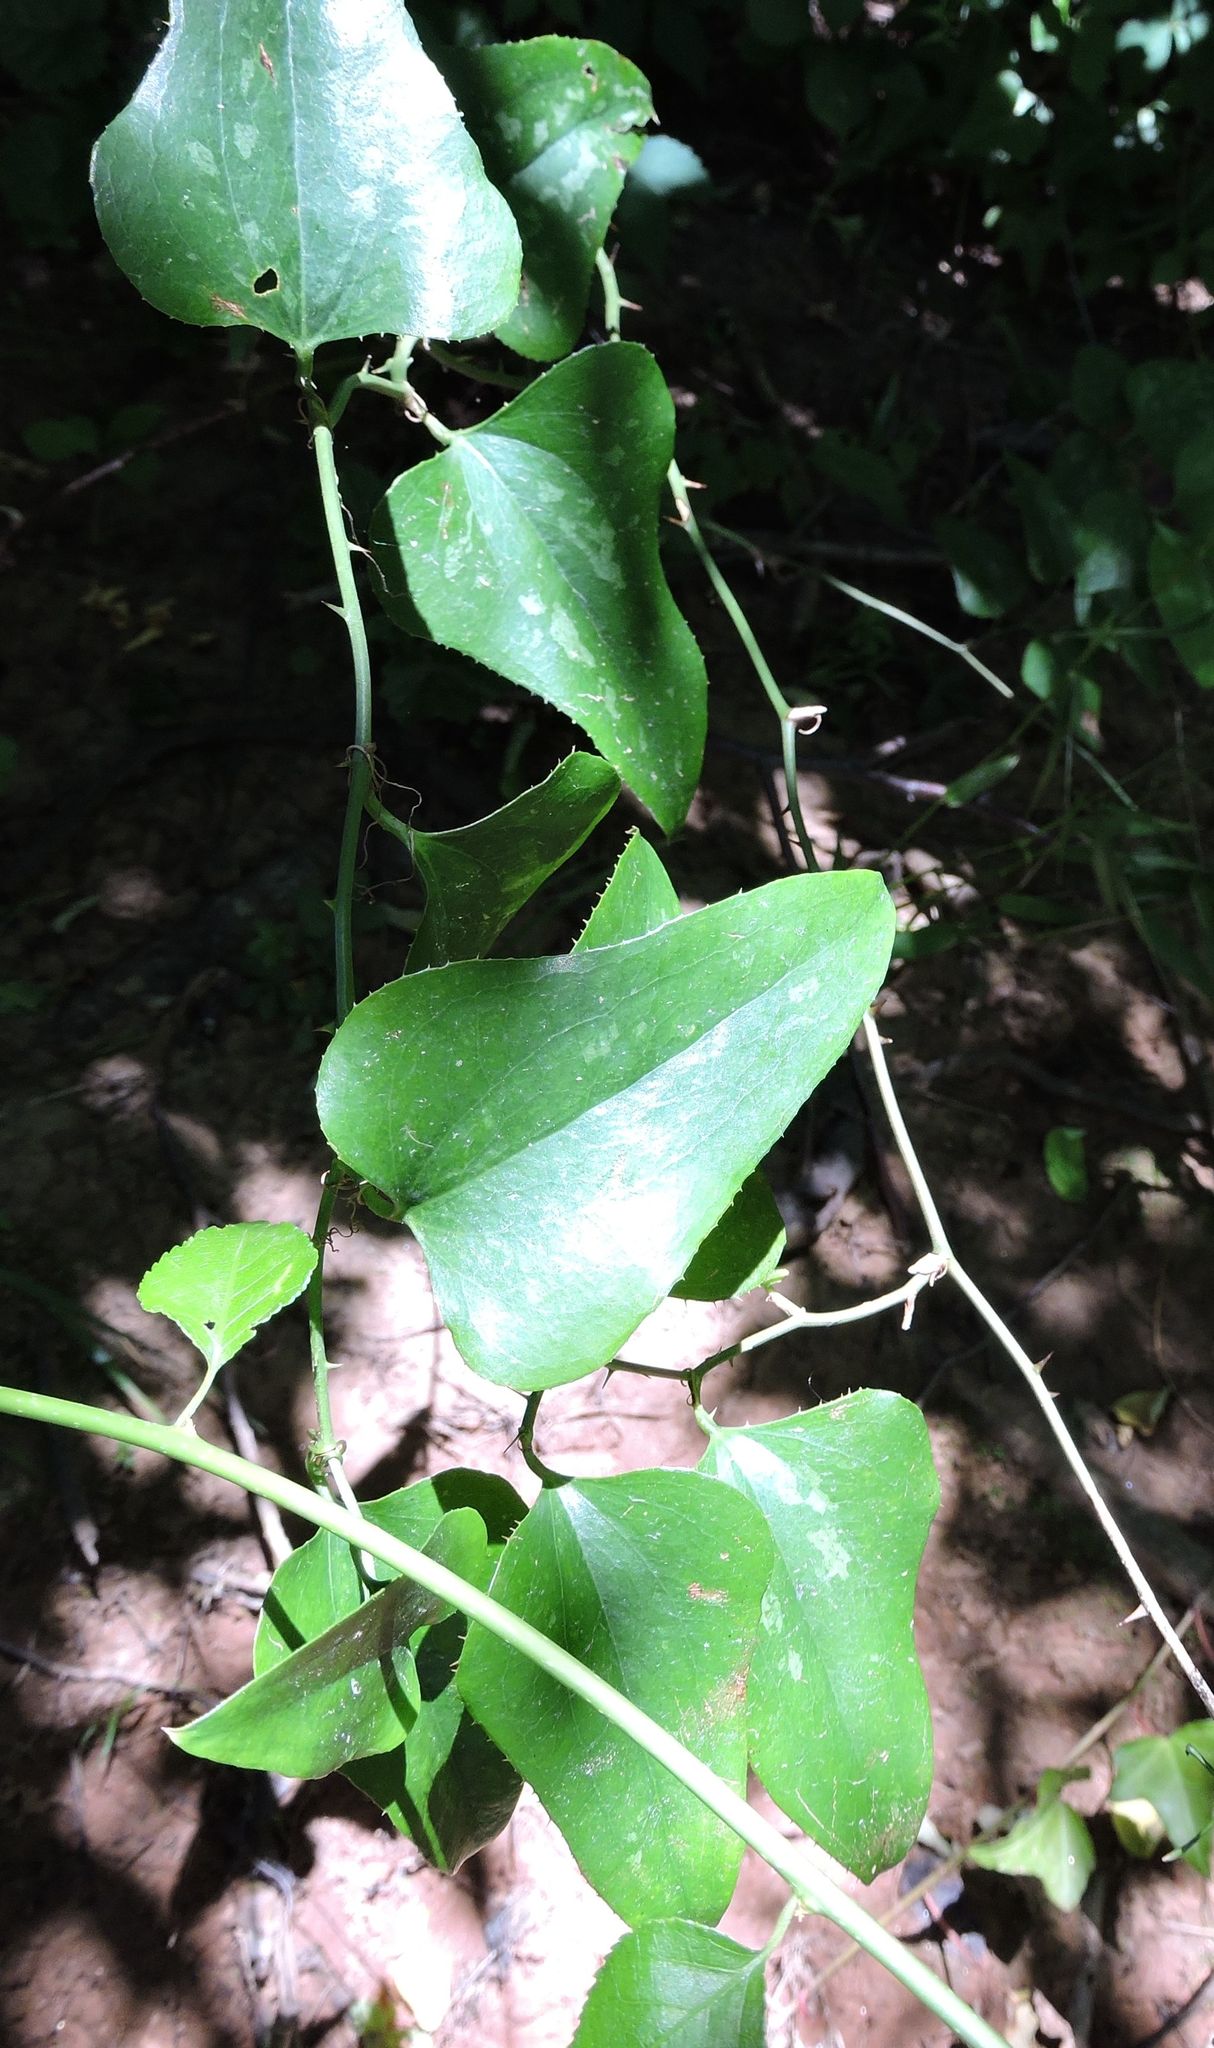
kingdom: Plantae
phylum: Tracheophyta
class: Liliopsida
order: Liliales
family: Smilacaceae
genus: Smilax
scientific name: Smilax bona-nox
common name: Catbrier
